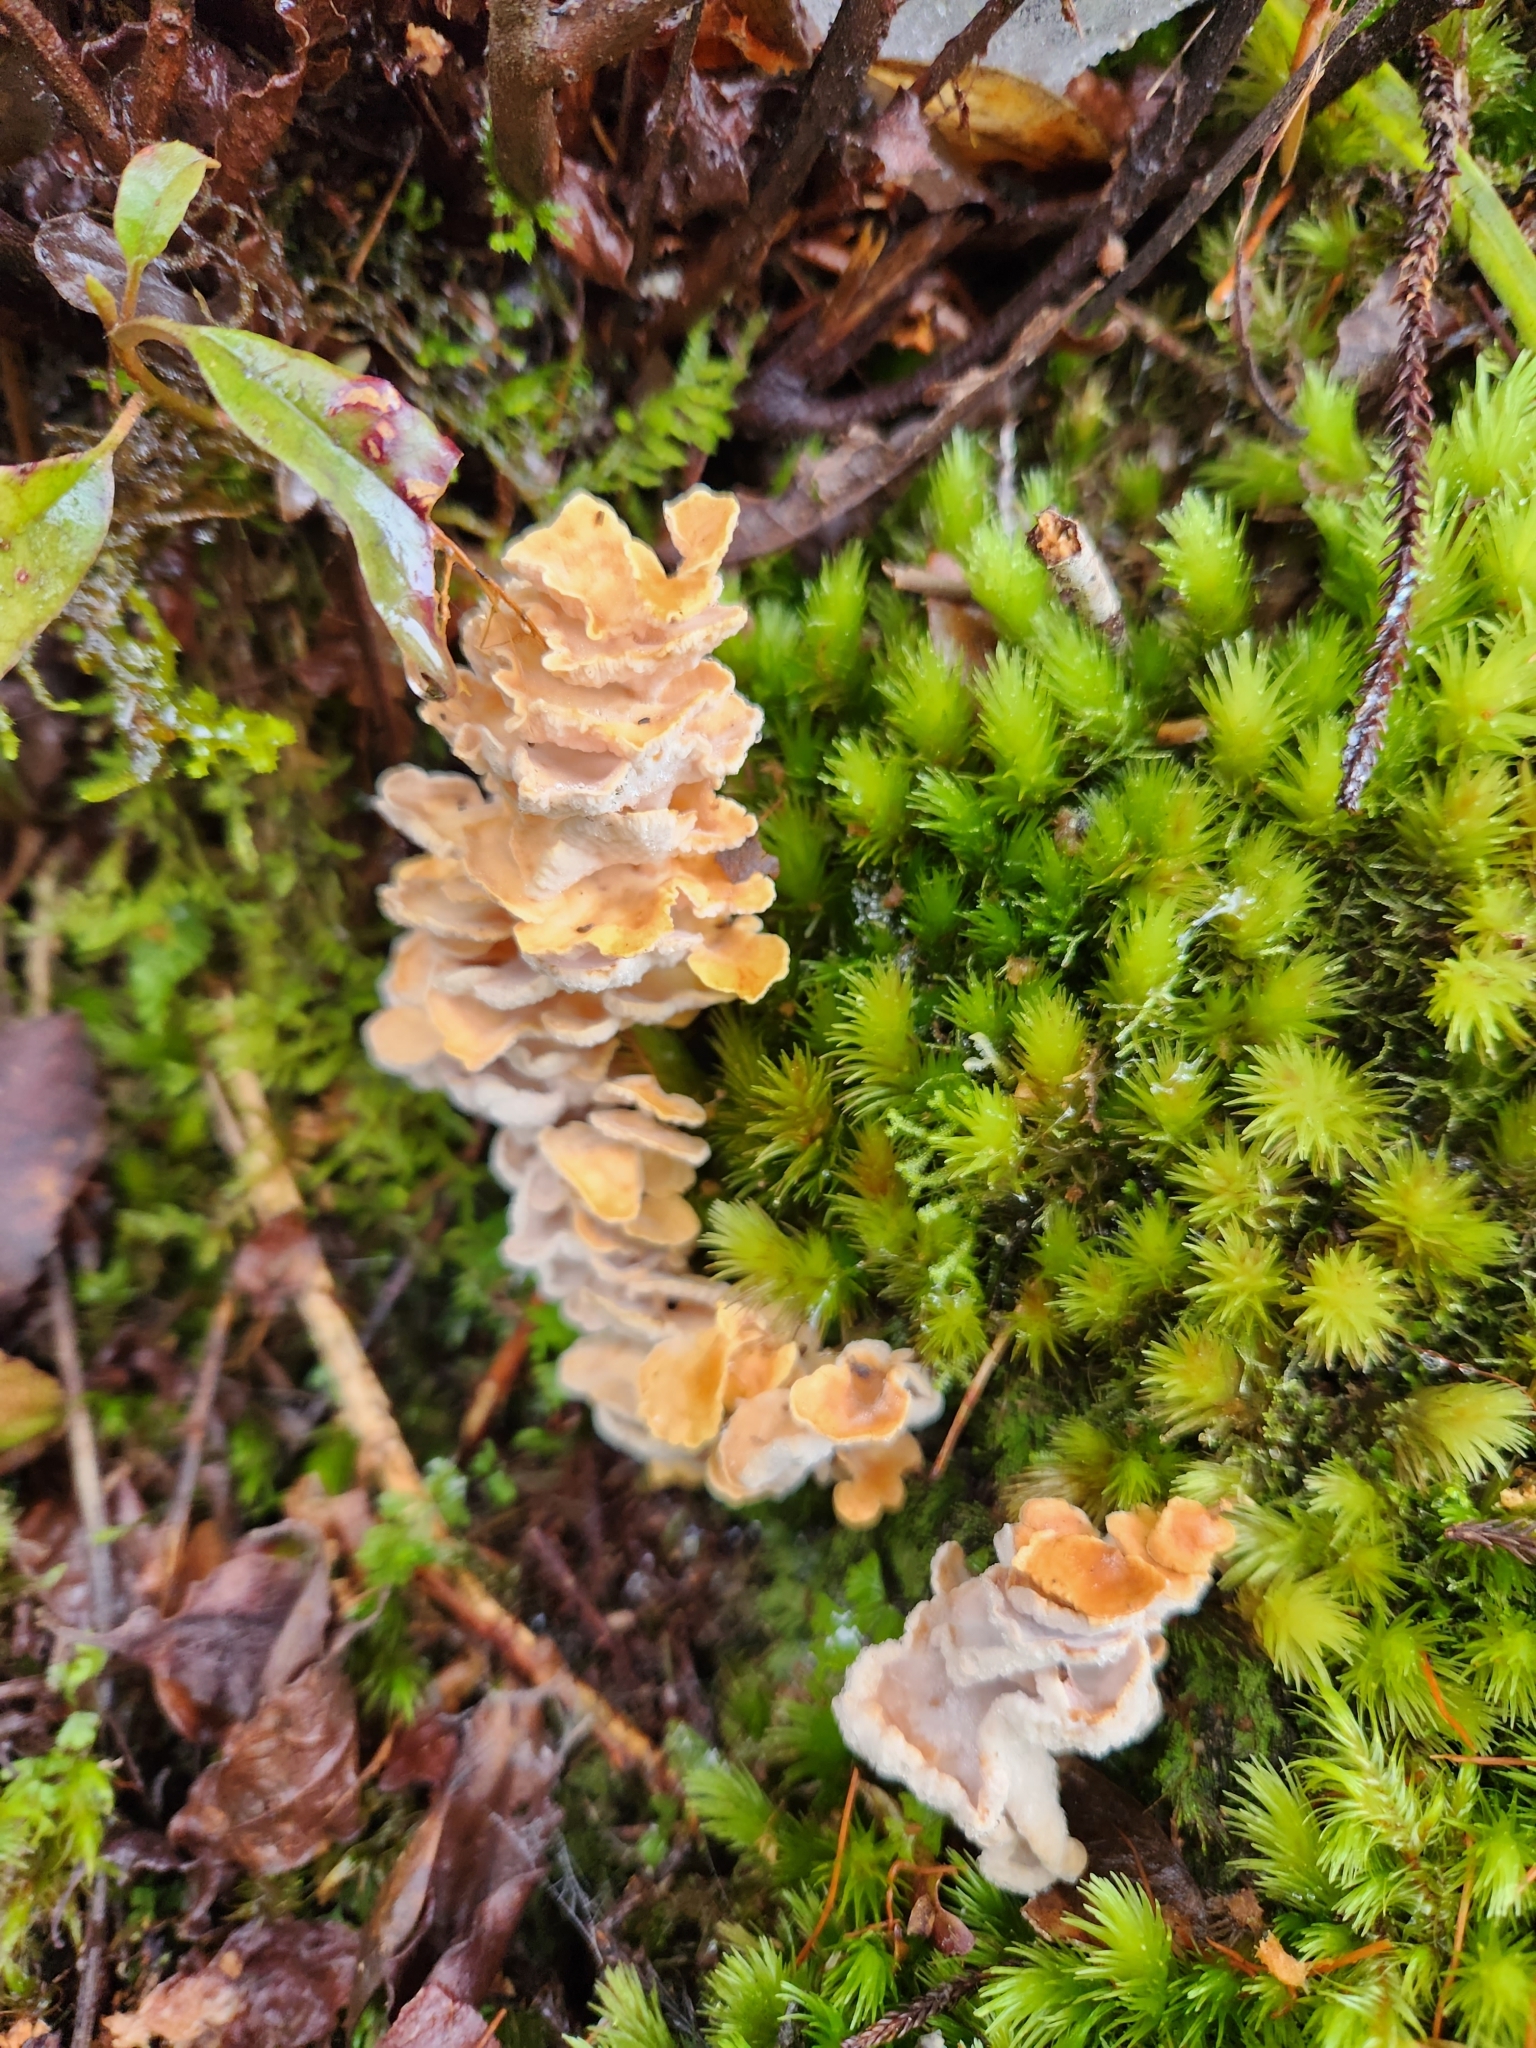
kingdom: Fungi
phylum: Basidiomycota
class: Agaricomycetes
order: Amylocorticiales
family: Amylocorticiaceae
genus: Podoserpula
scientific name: Podoserpula pusio
